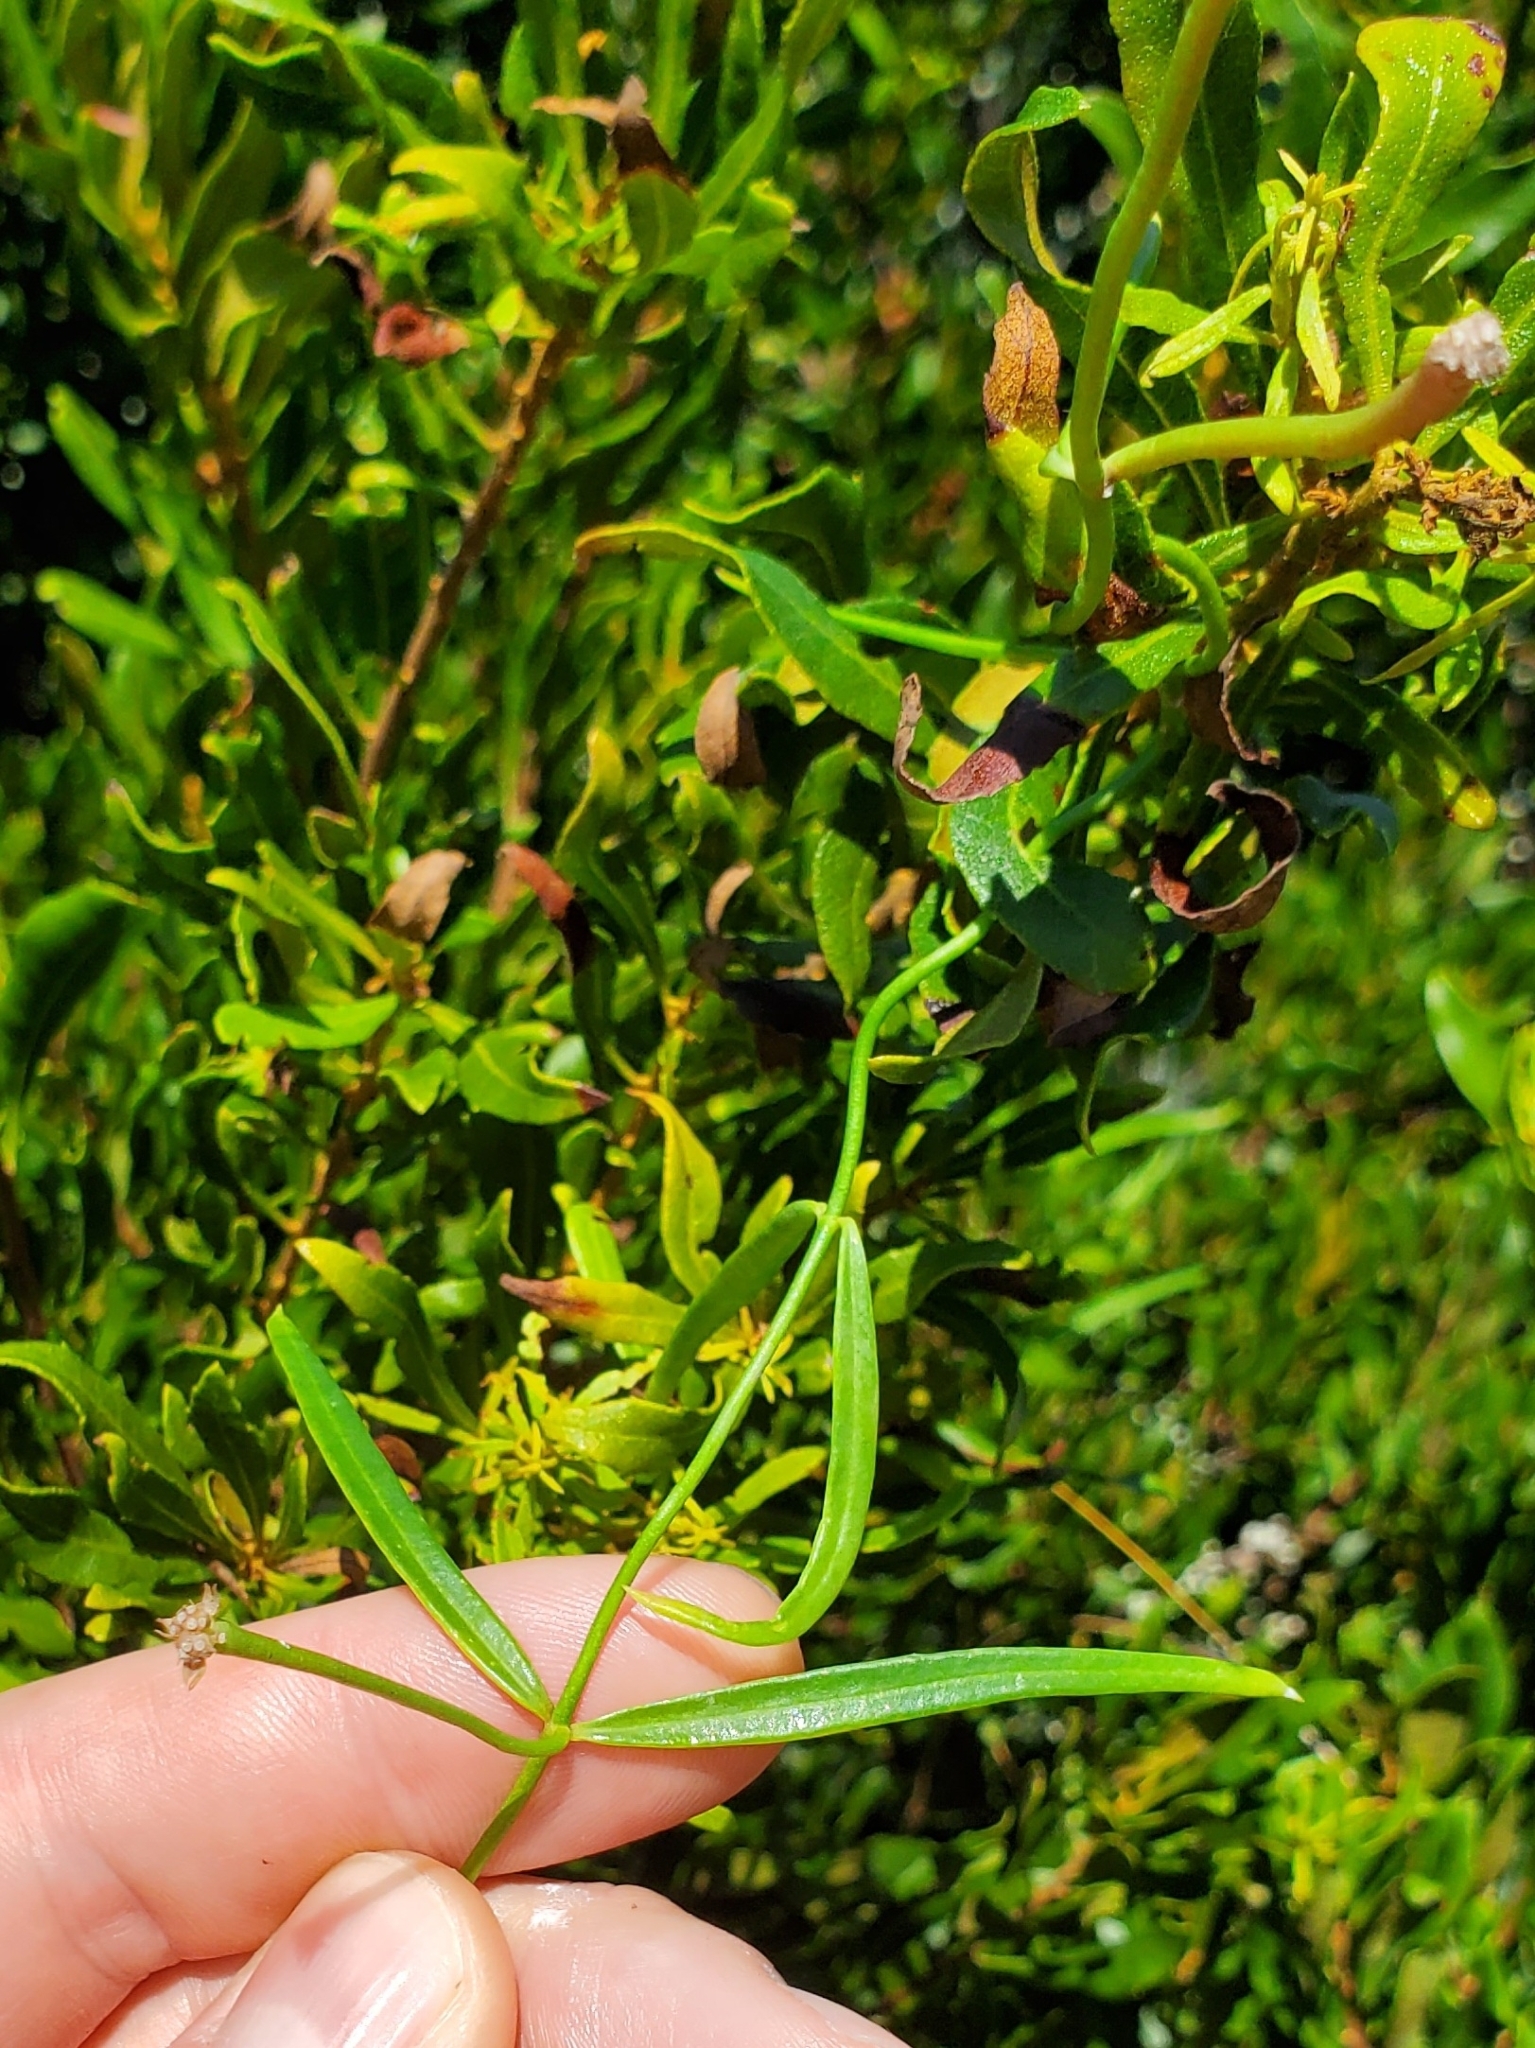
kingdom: Plantae
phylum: Tracheophyta
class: Magnoliopsida
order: Gentianales
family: Apocynaceae
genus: Pattalias
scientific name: Pattalias
